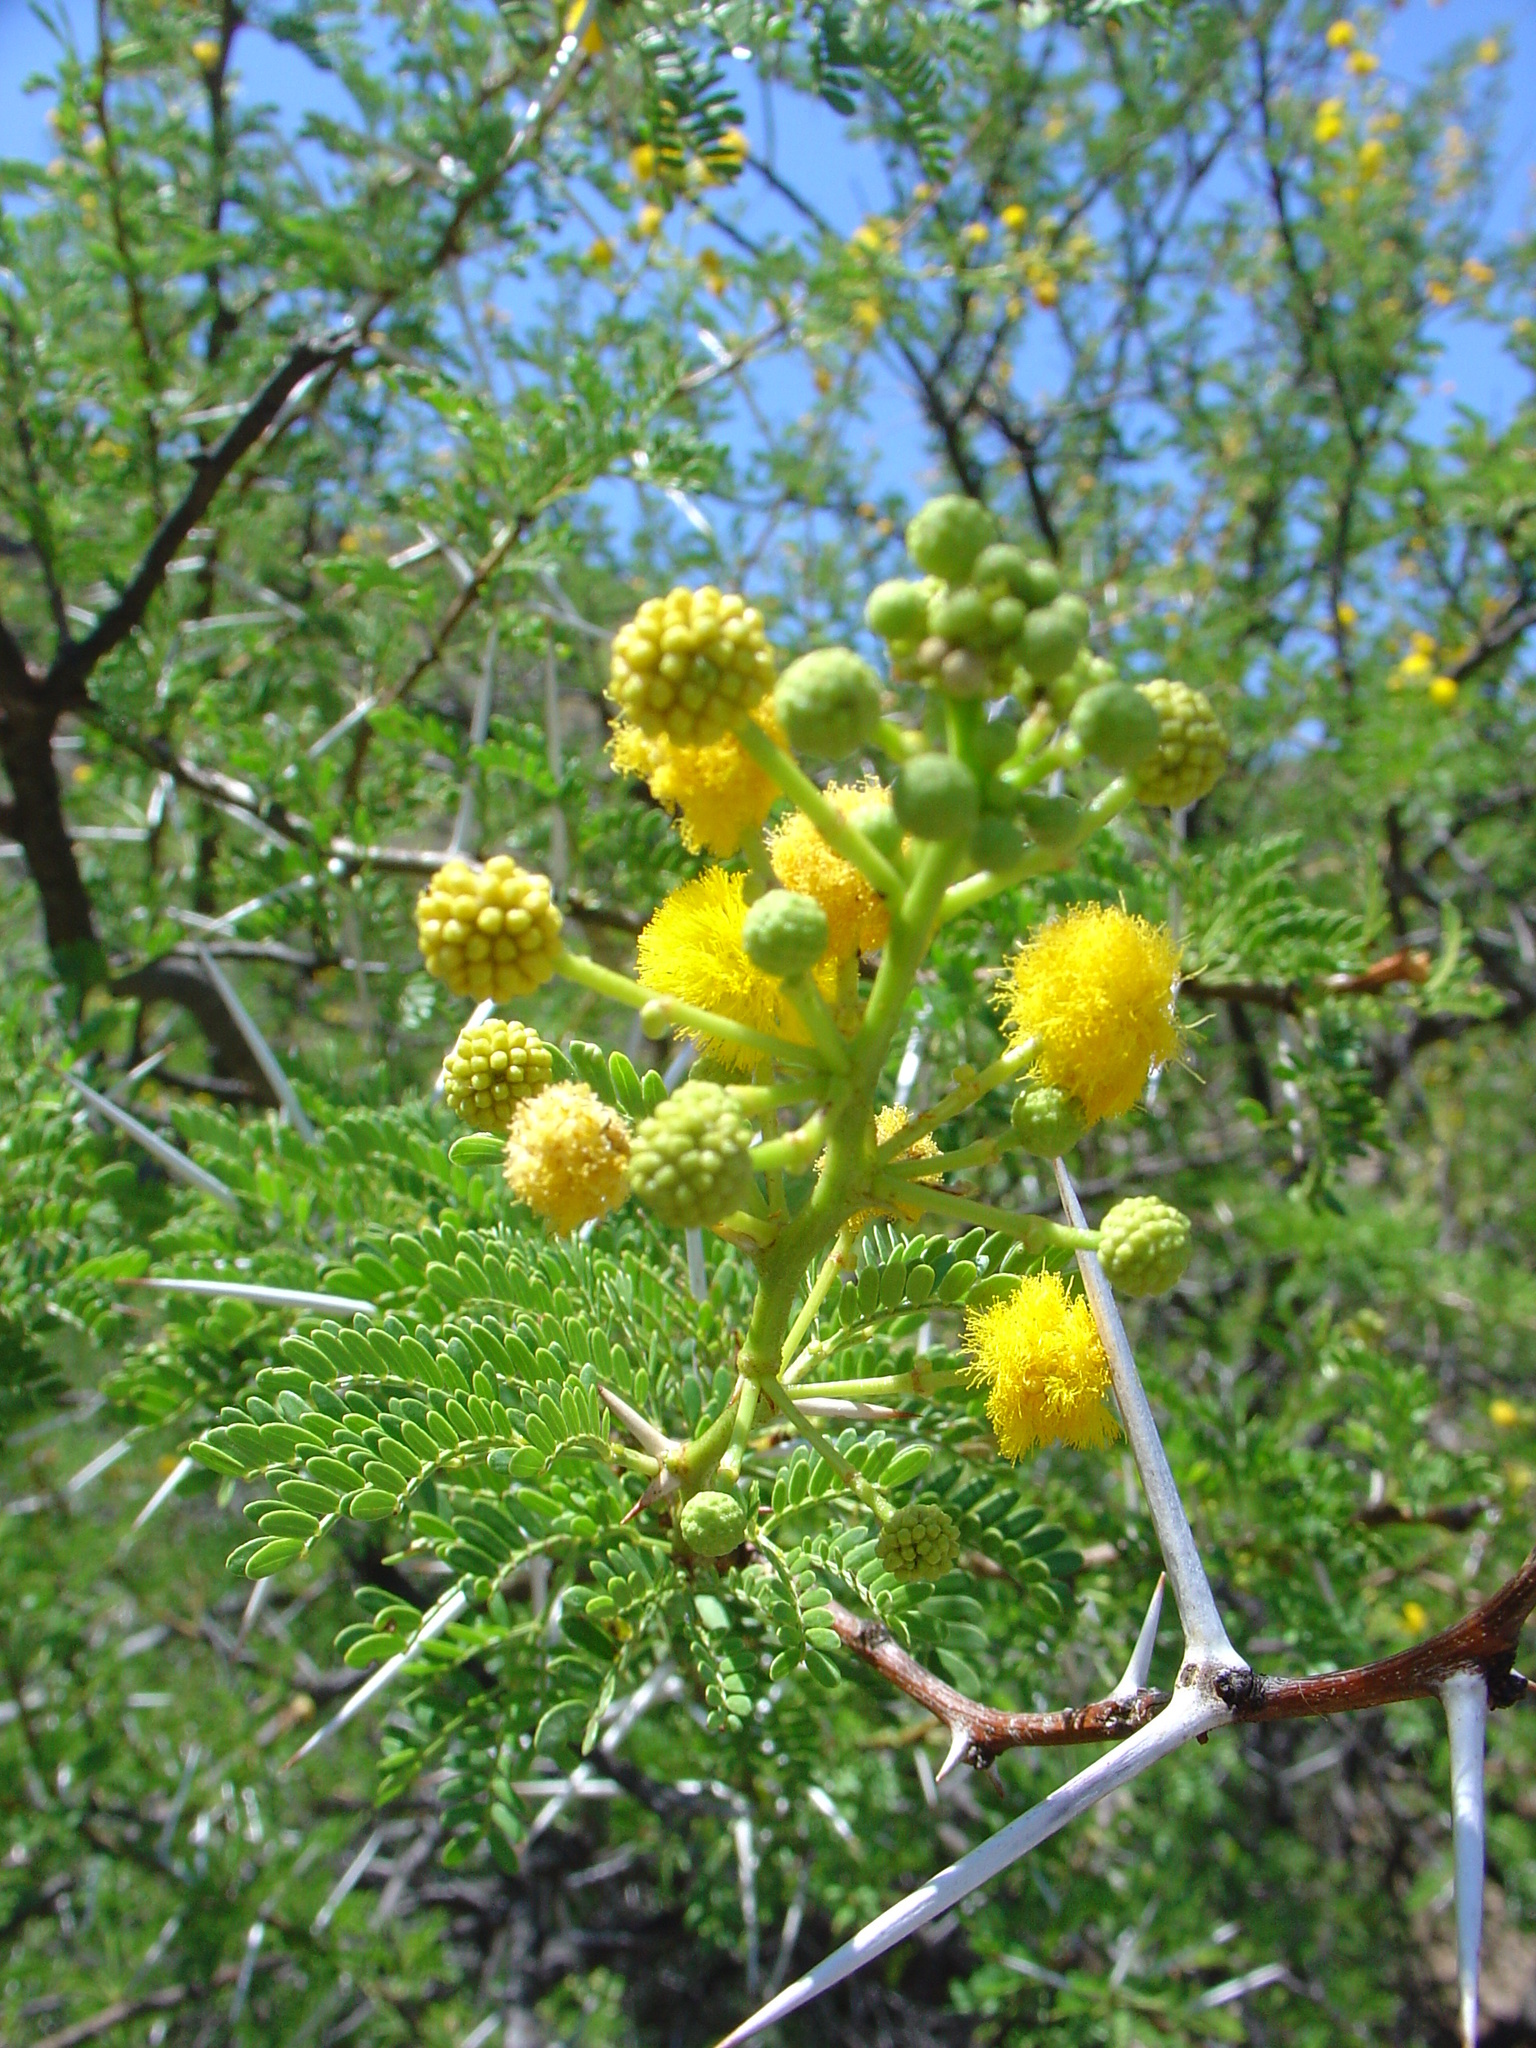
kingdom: Plantae
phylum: Tracheophyta
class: Magnoliopsida
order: Fabales
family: Fabaceae
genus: Vachellia
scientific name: Vachellia karroo
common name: Sweet thorn
